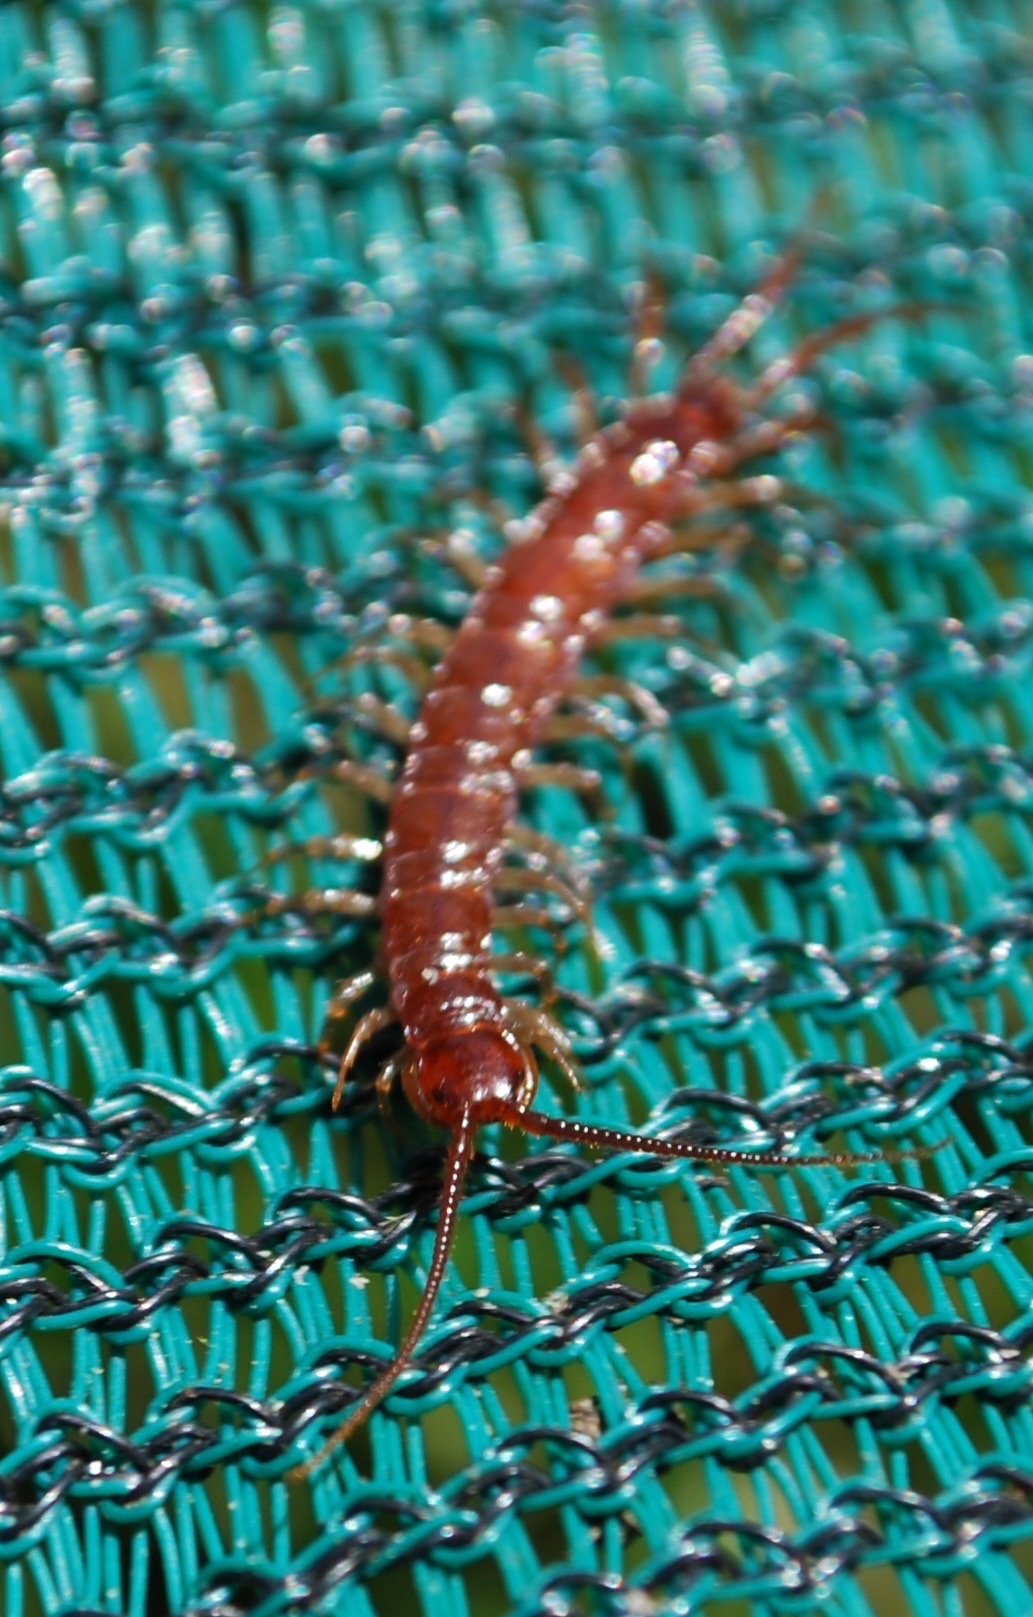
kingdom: Animalia
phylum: Arthropoda
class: Chilopoda
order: Lithobiomorpha
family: Lithobiidae
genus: Lithobius
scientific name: Lithobius forficatus
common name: Centipede
